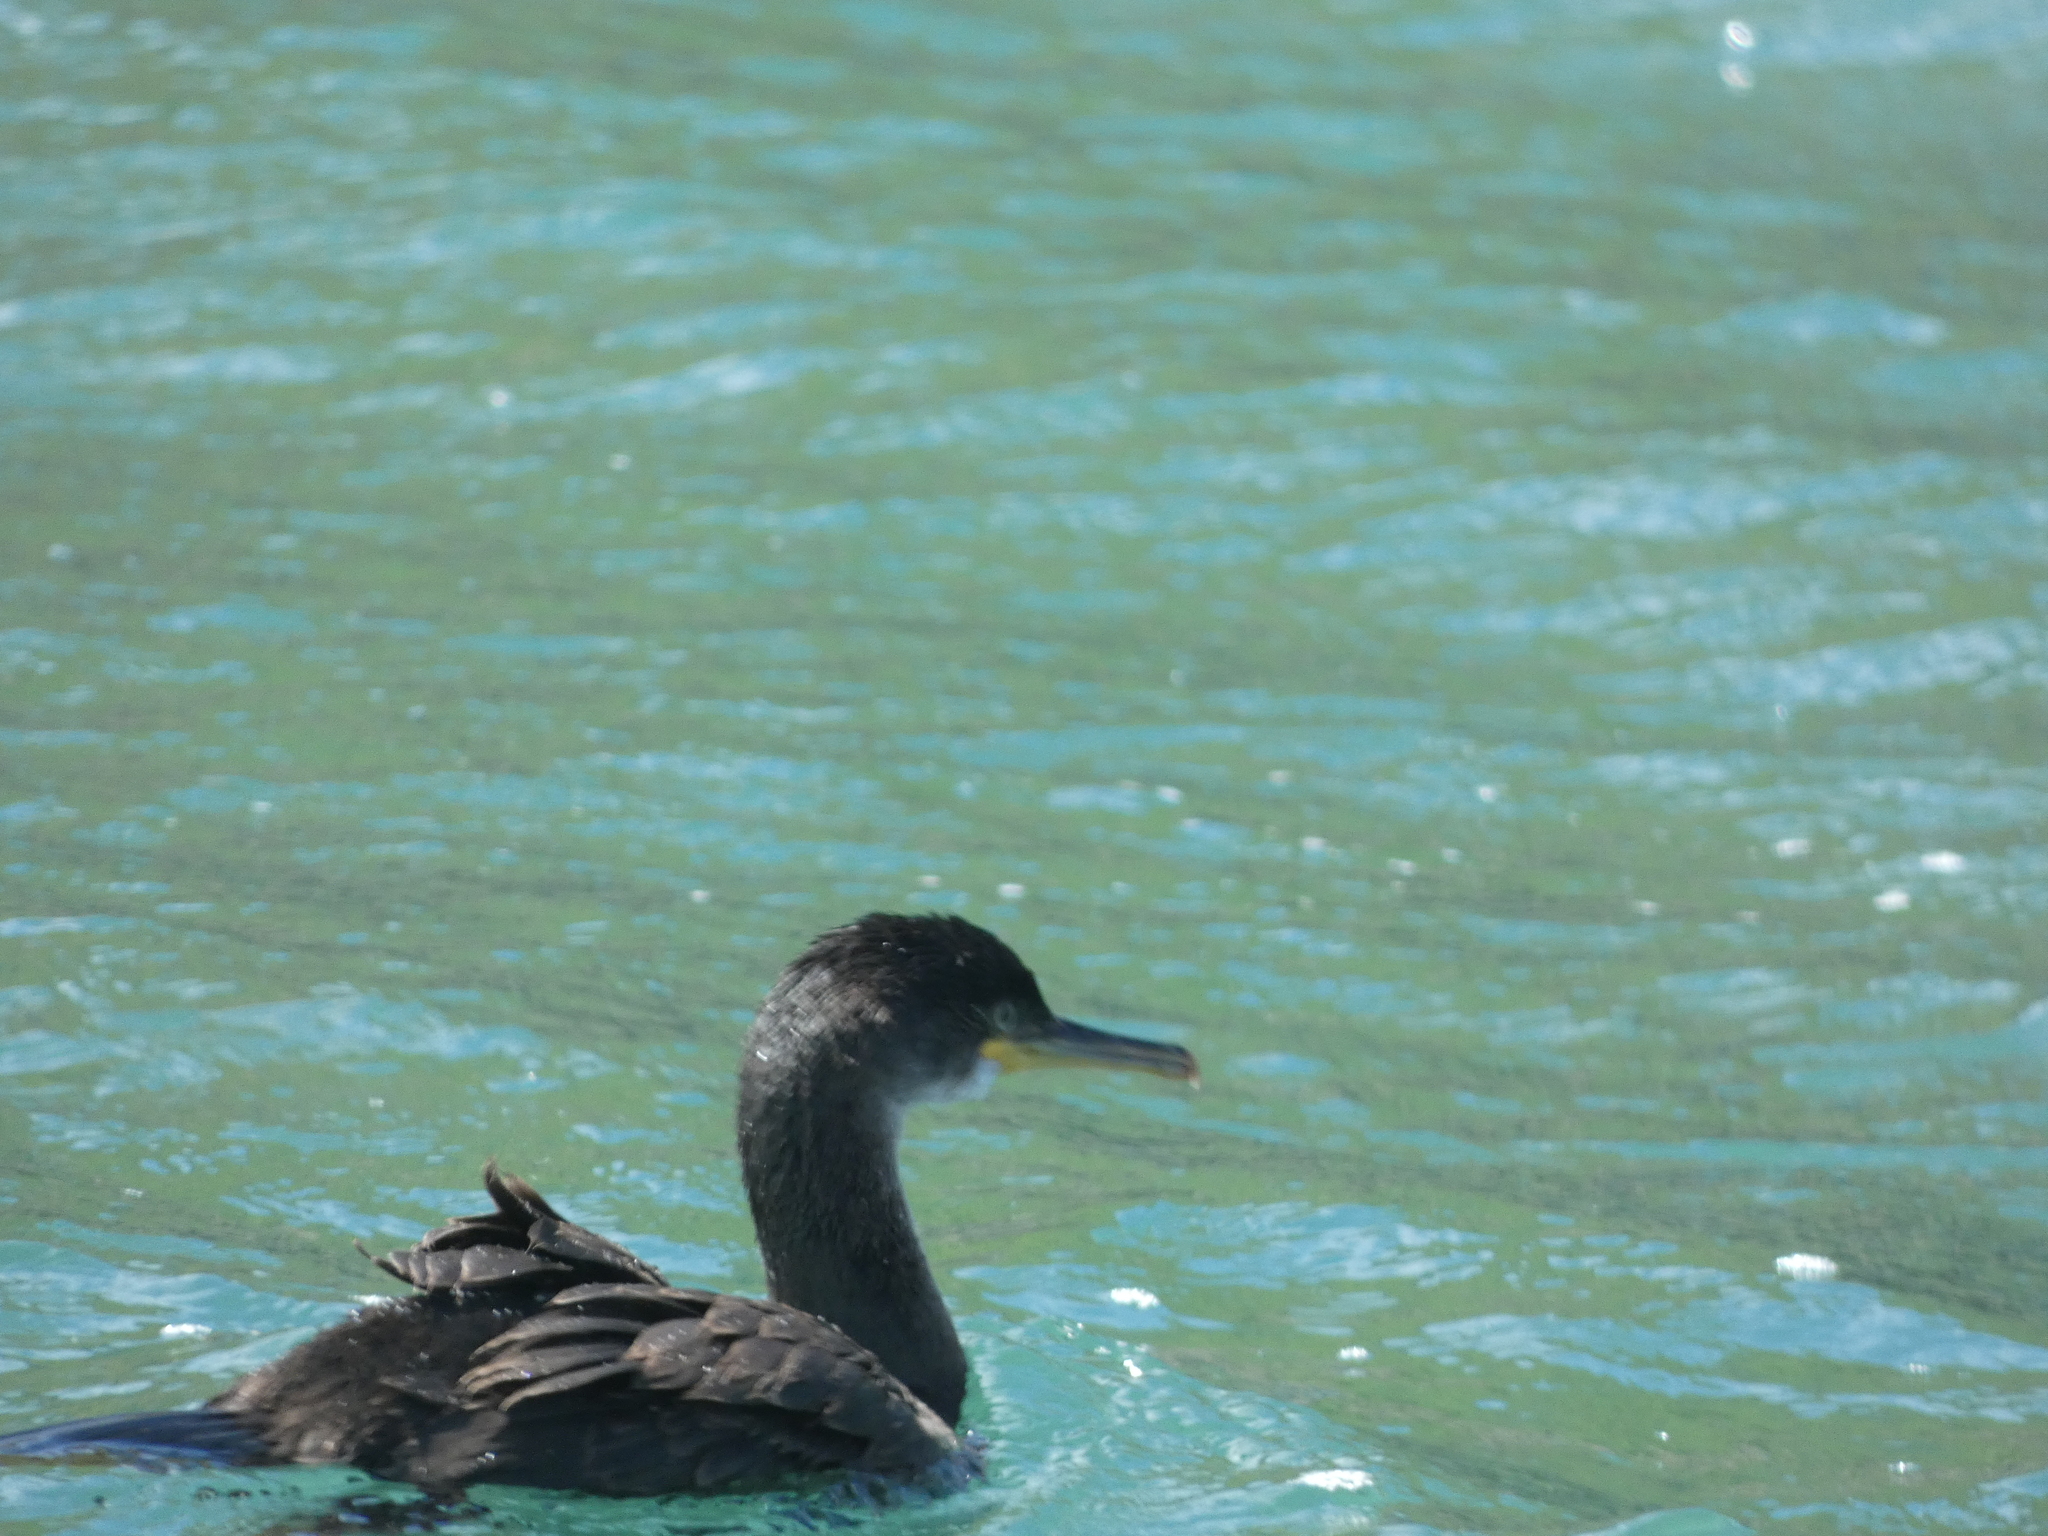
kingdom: Animalia
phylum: Chordata
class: Aves
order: Suliformes
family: Phalacrocoracidae
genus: Phalacrocorax
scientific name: Phalacrocorax aristotelis
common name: European shag
